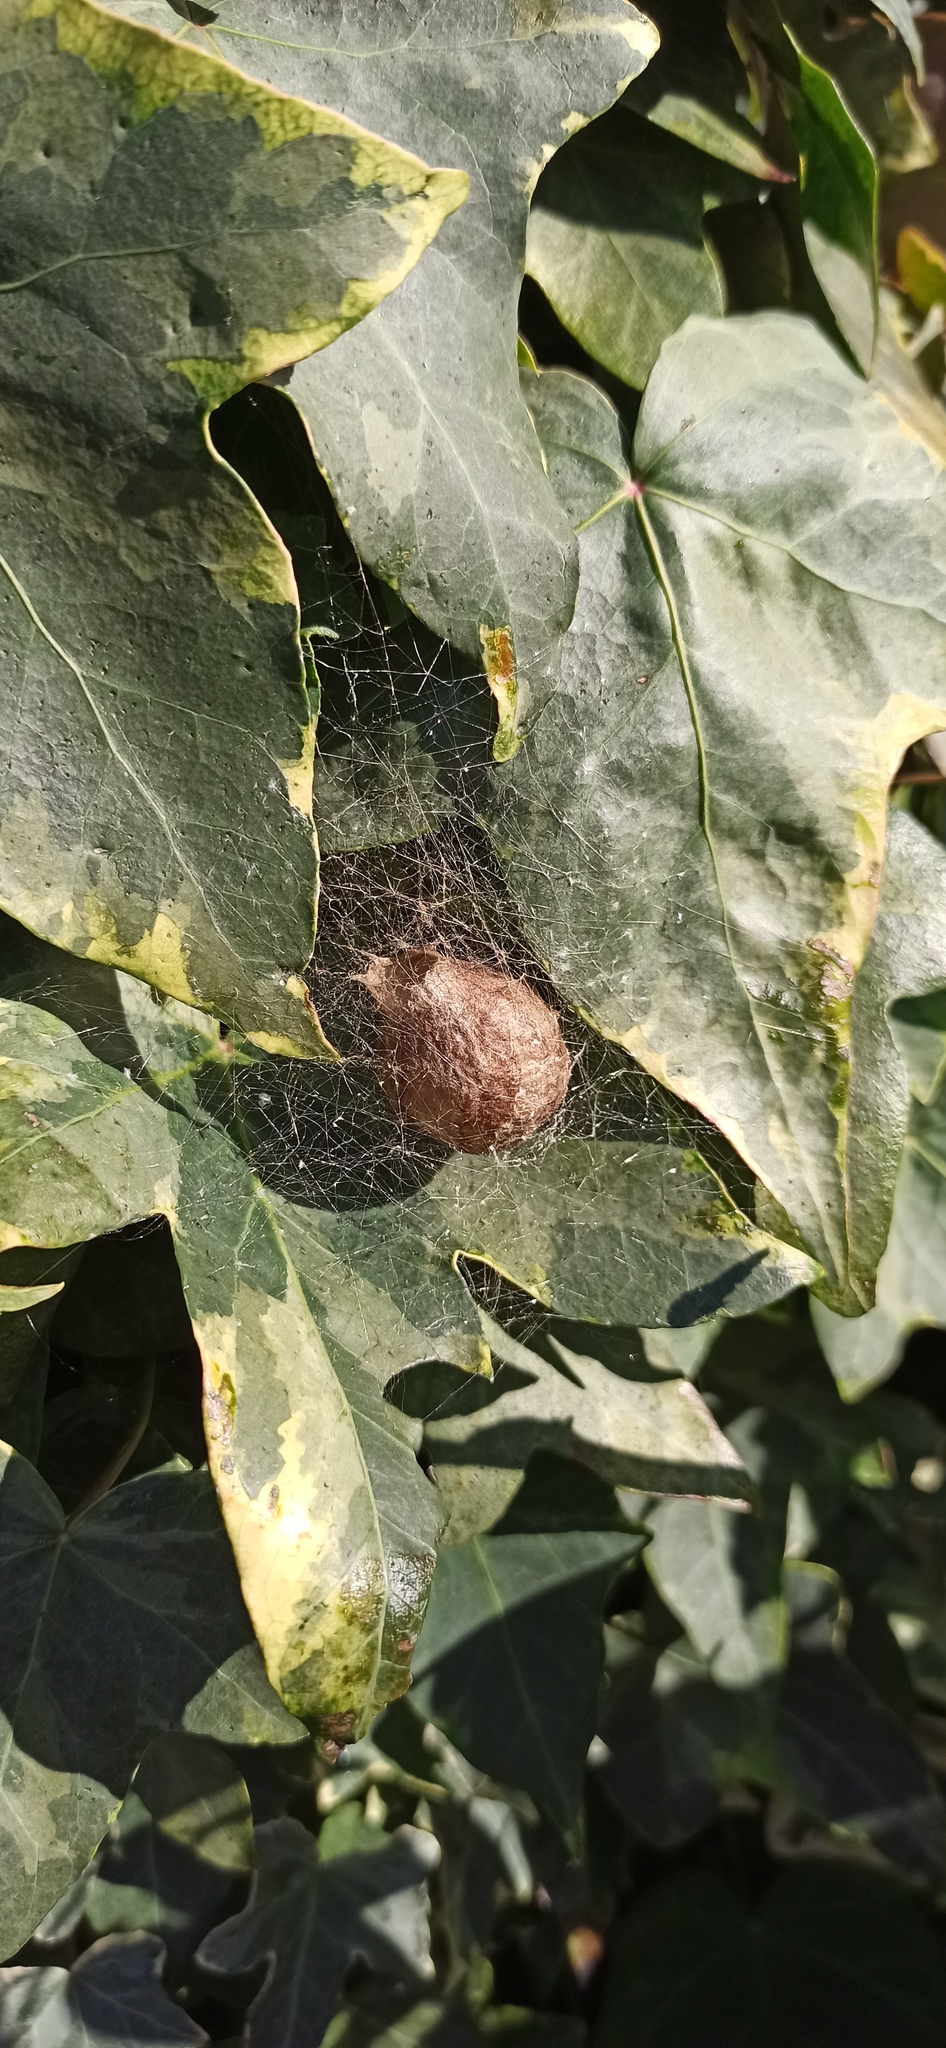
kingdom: Animalia
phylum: Arthropoda
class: Arachnida
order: Araneae
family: Araneidae
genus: Argiope
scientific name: Argiope bruennichi
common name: Wasp spider
